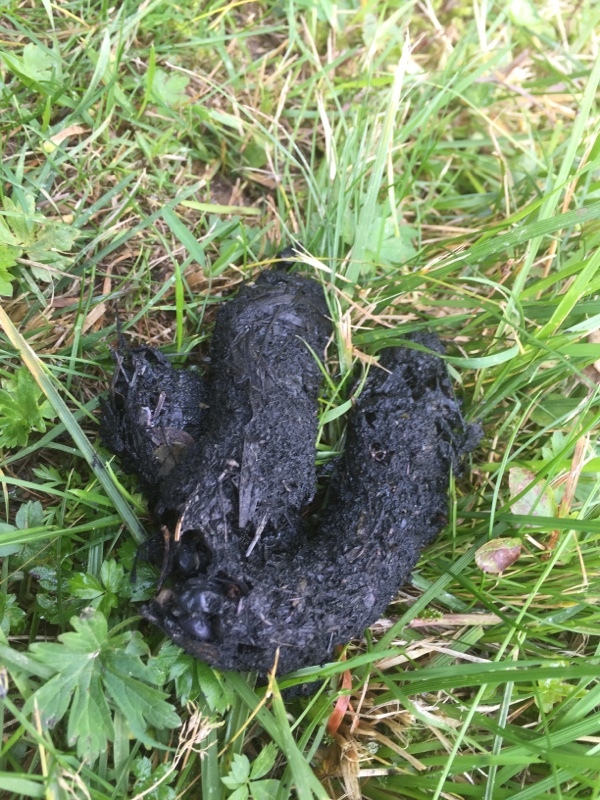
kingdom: Animalia
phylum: Chordata
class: Mammalia
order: Carnivora
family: Canidae
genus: Vulpes
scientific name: Vulpes vulpes
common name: Red fox
